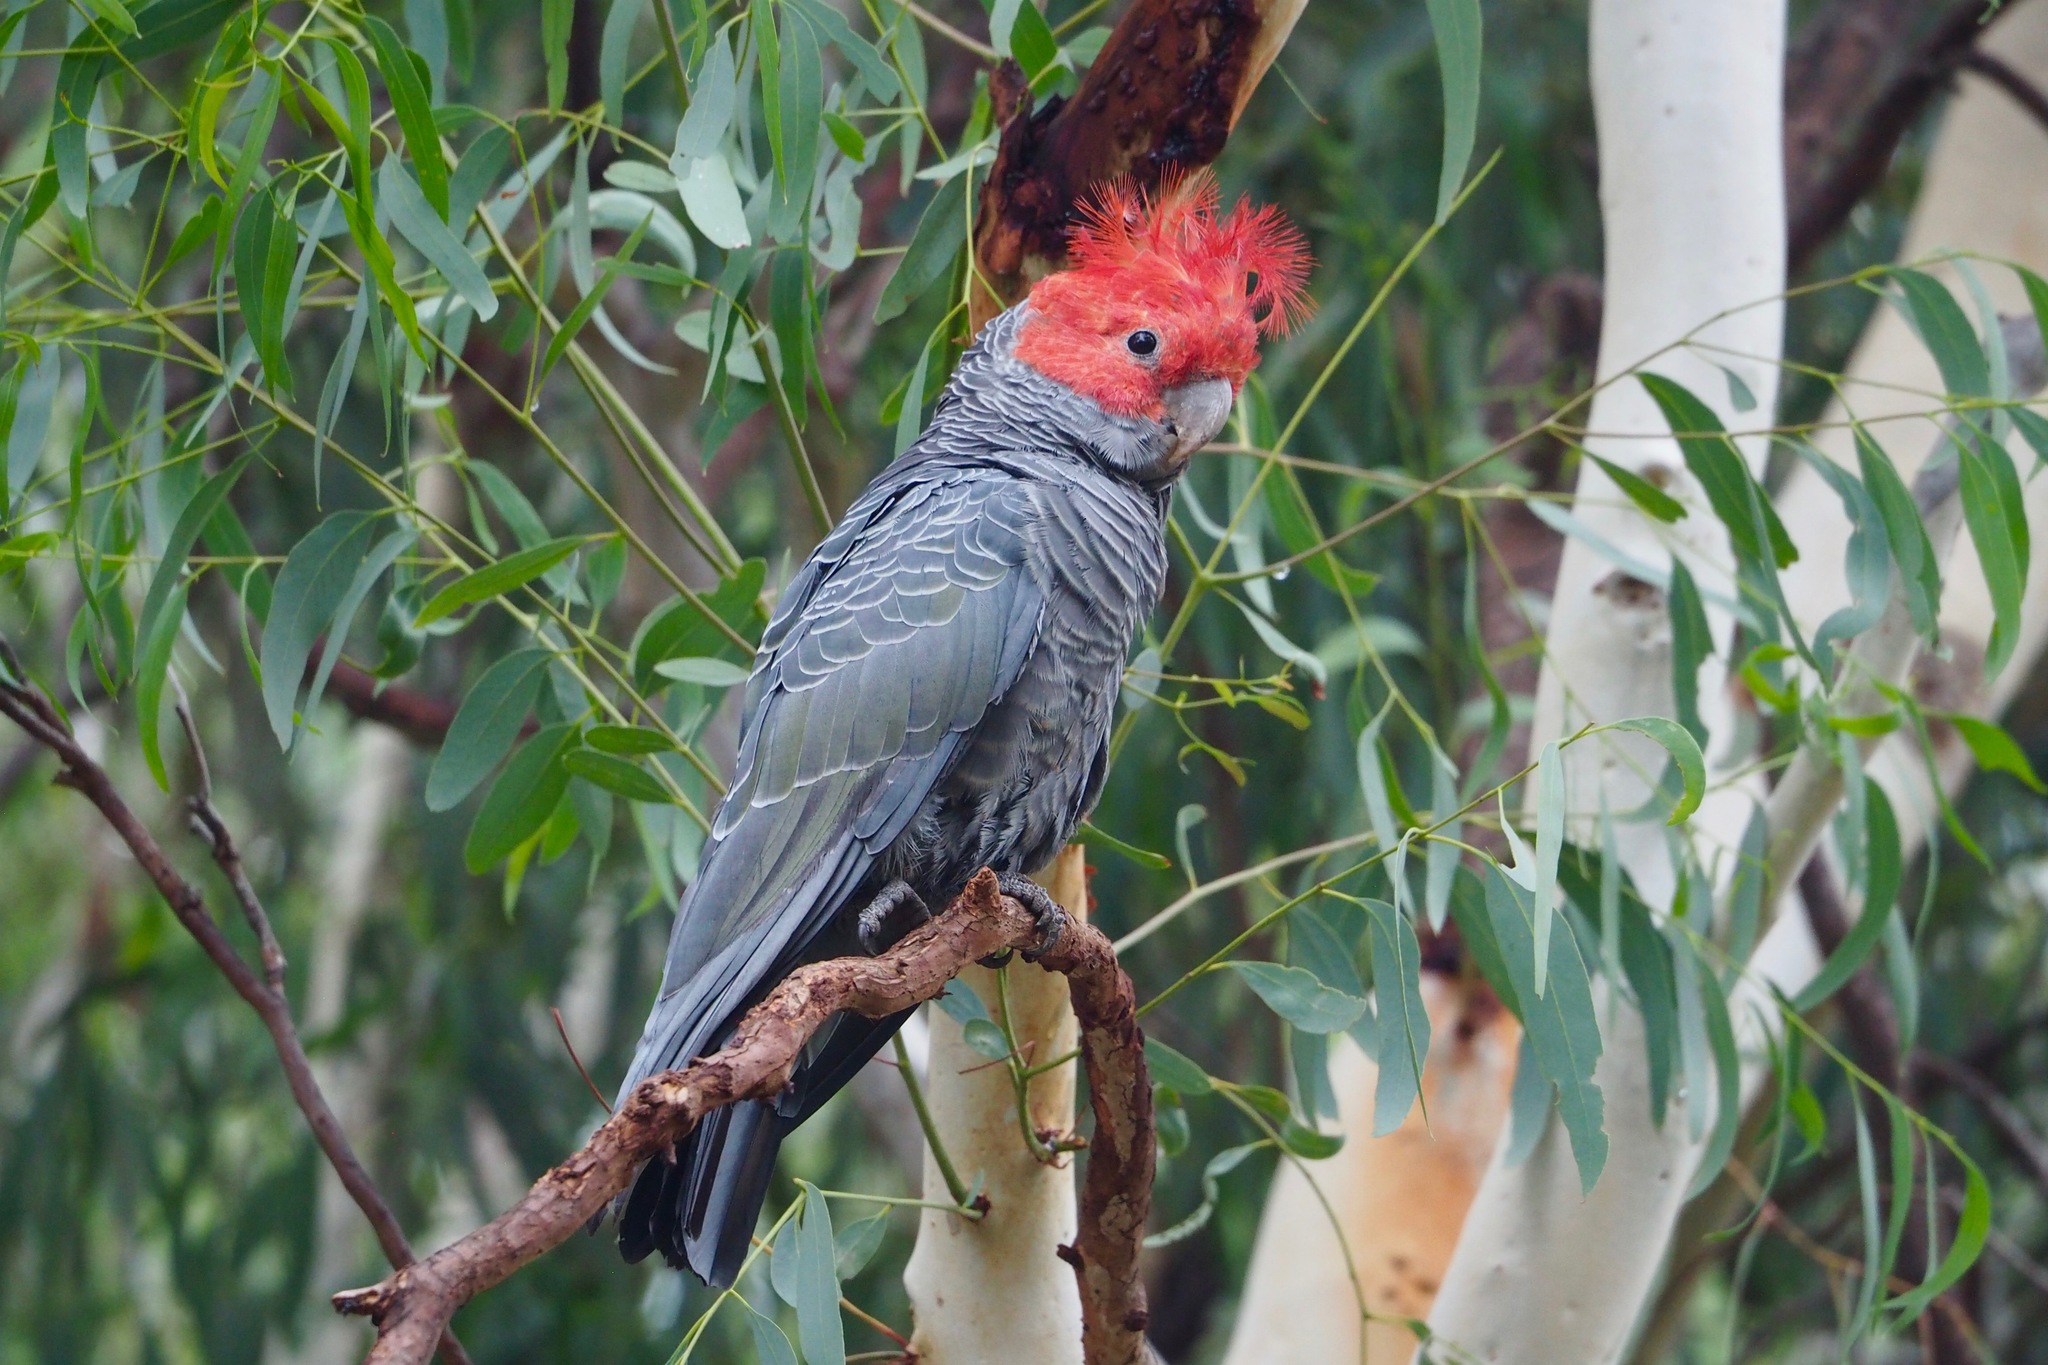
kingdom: Animalia
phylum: Chordata
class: Aves
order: Psittaciformes
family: Psittacidae
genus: Callocephalon
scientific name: Callocephalon fimbriatum
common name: Gang-gang cockatoo
